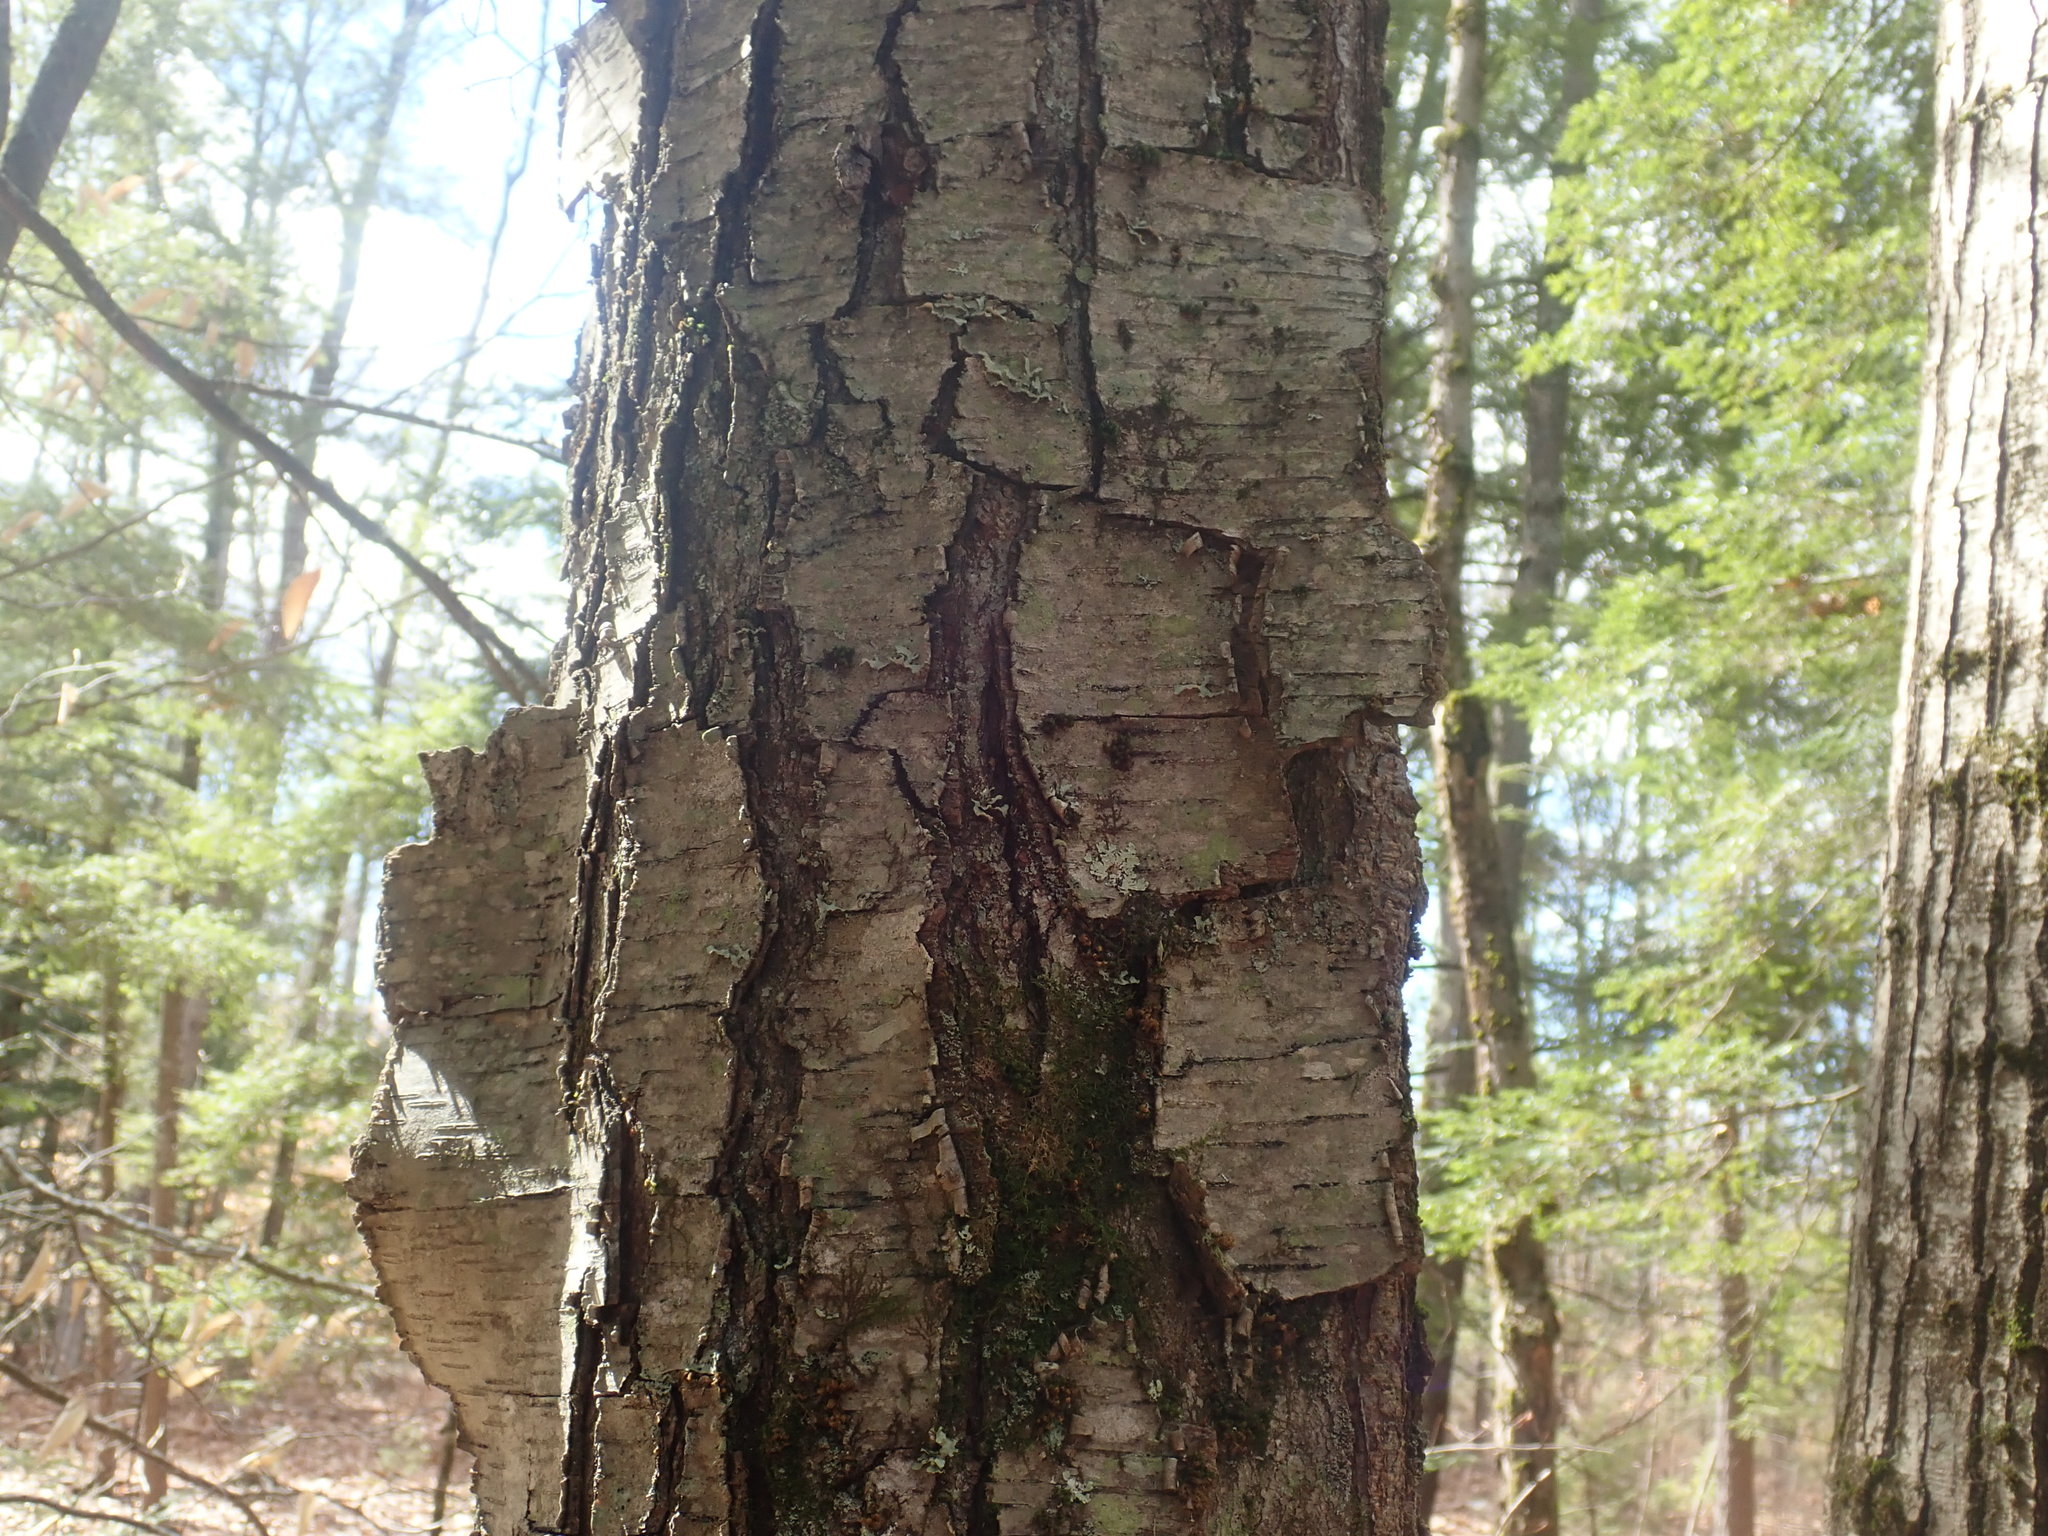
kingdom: Plantae
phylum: Tracheophyta
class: Magnoliopsida
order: Fagales
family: Betulaceae
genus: Betula
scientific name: Betula lenta
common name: Black birch
